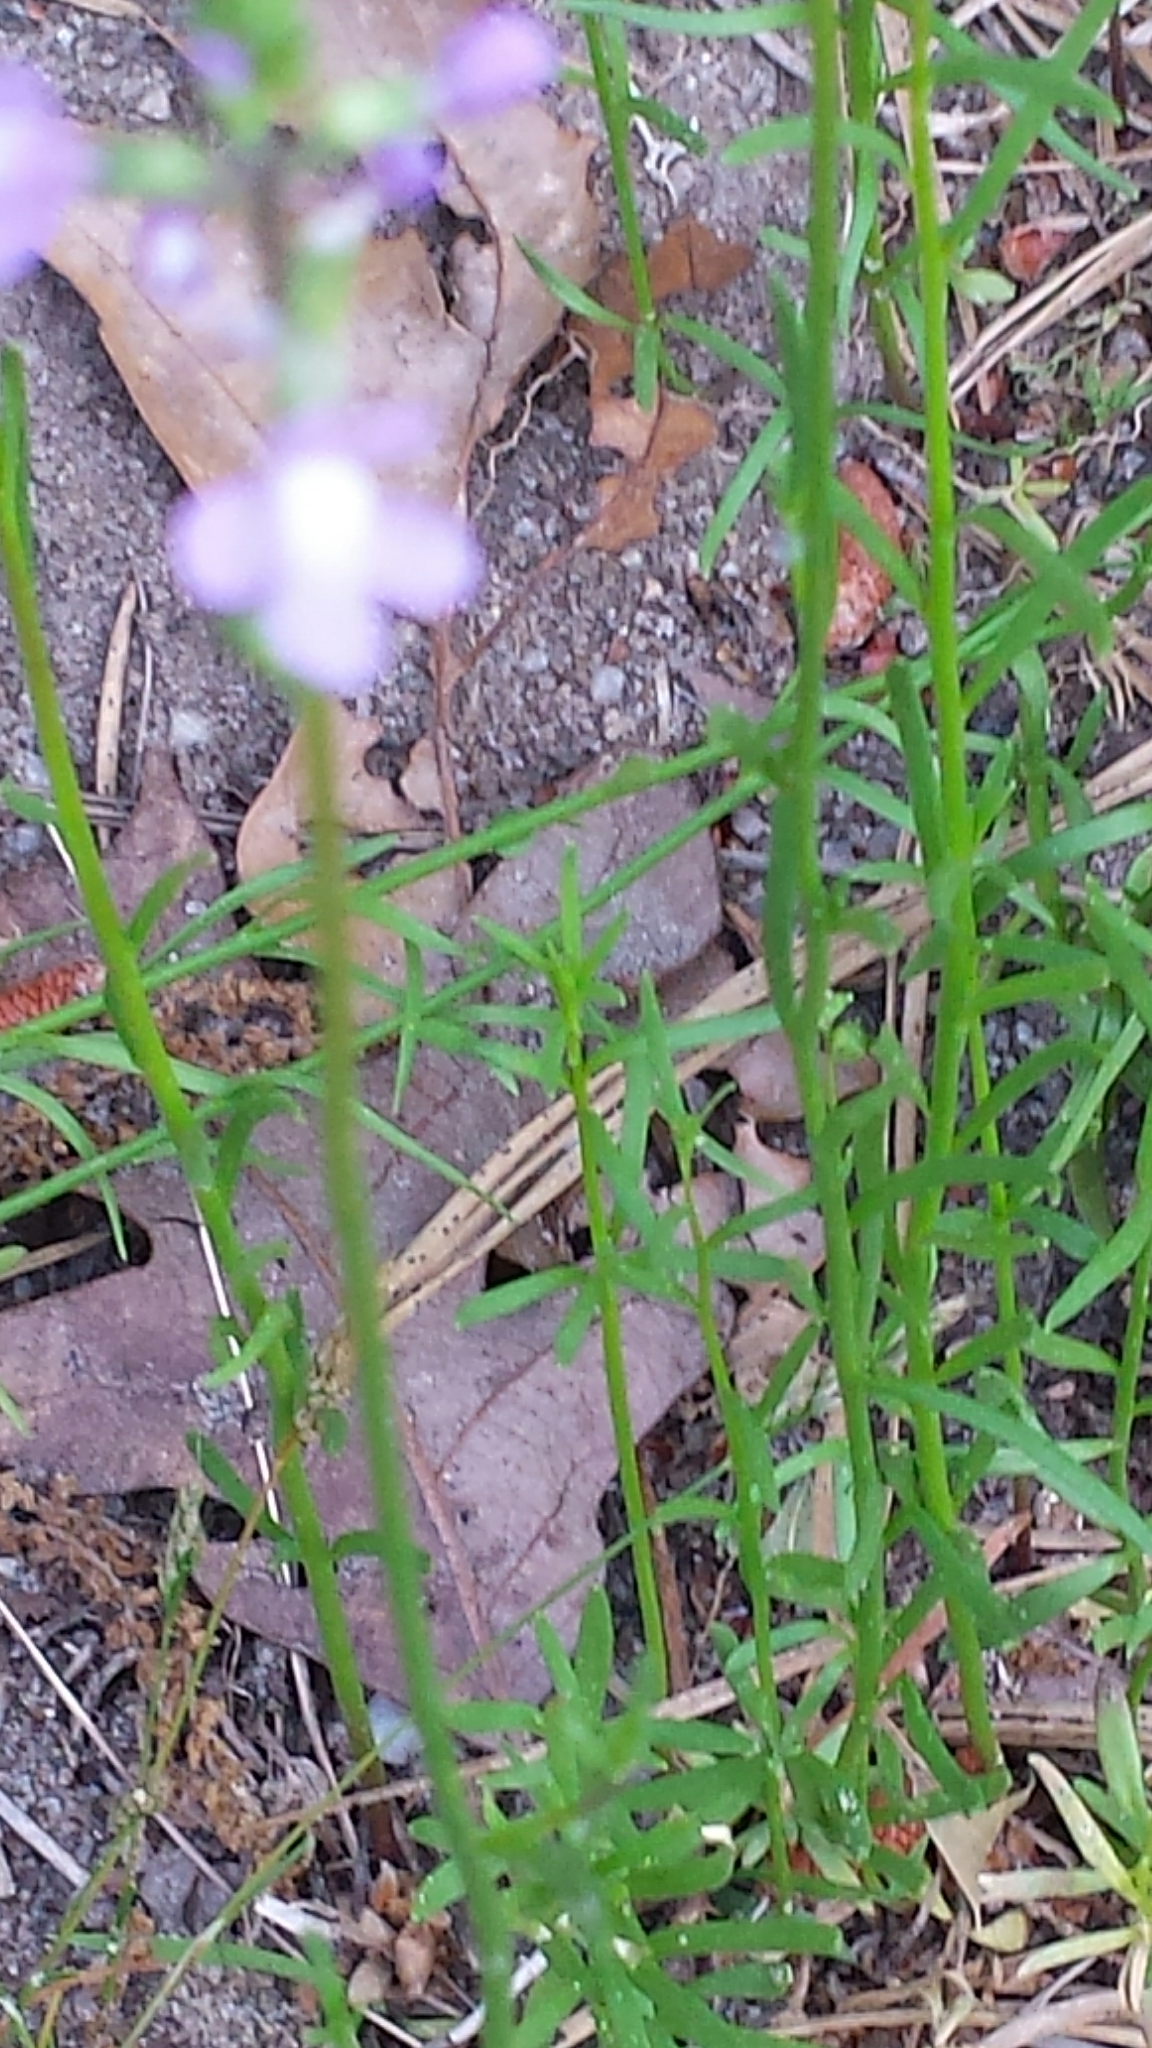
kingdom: Plantae
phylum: Tracheophyta
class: Magnoliopsida
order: Lamiales
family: Plantaginaceae
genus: Nuttallanthus
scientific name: Nuttallanthus canadensis
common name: Blue toadflax
